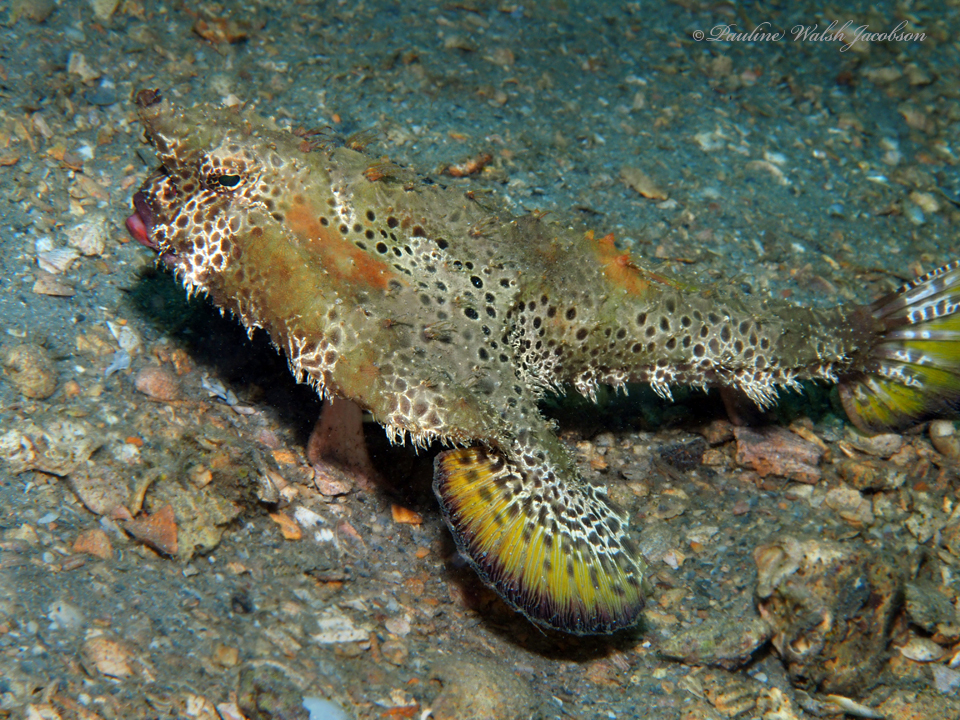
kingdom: Animalia
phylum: Chordata
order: Lophiiformes
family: Ogcocephalidae
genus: Ogcocephalus
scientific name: Ogcocephalus cubifrons
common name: Polka-dot batfish
